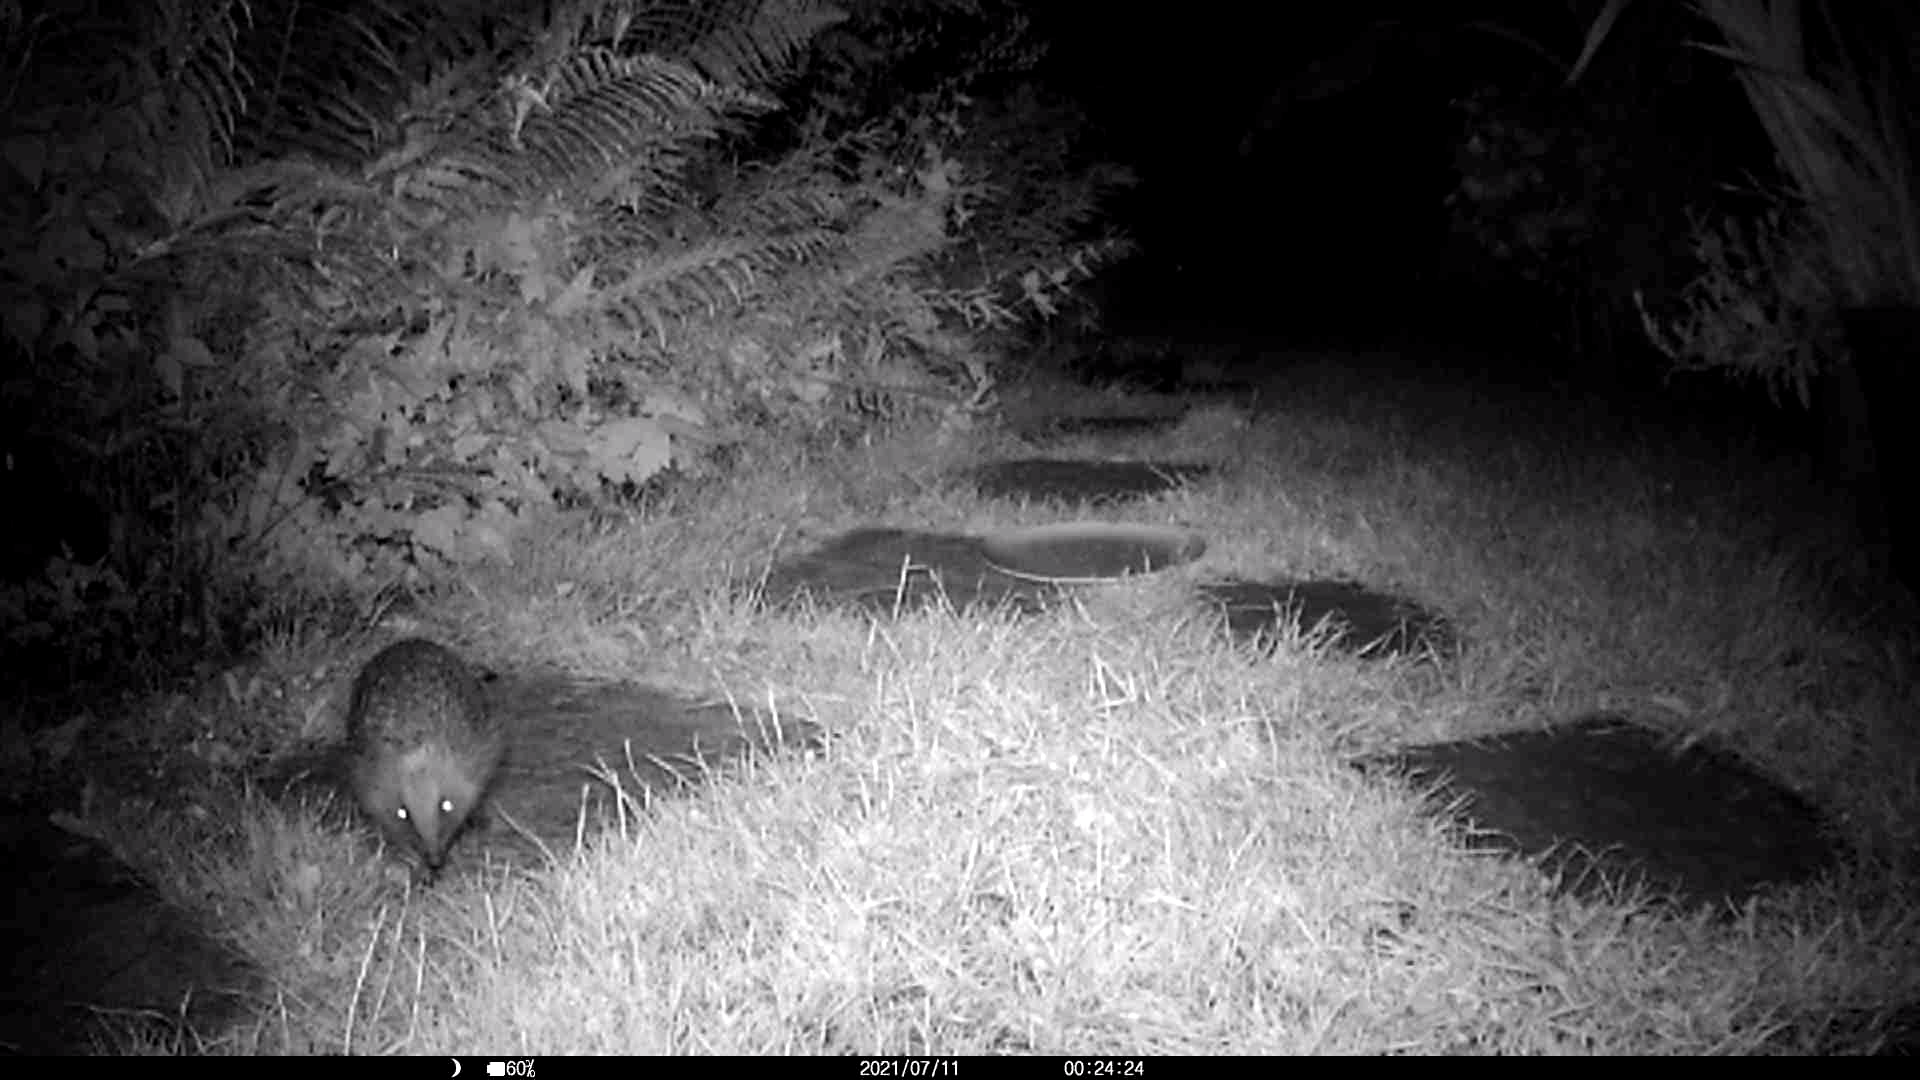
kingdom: Animalia
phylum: Chordata
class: Mammalia
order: Erinaceomorpha
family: Erinaceidae
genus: Erinaceus
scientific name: Erinaceus europaeus
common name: West european hedgehog
